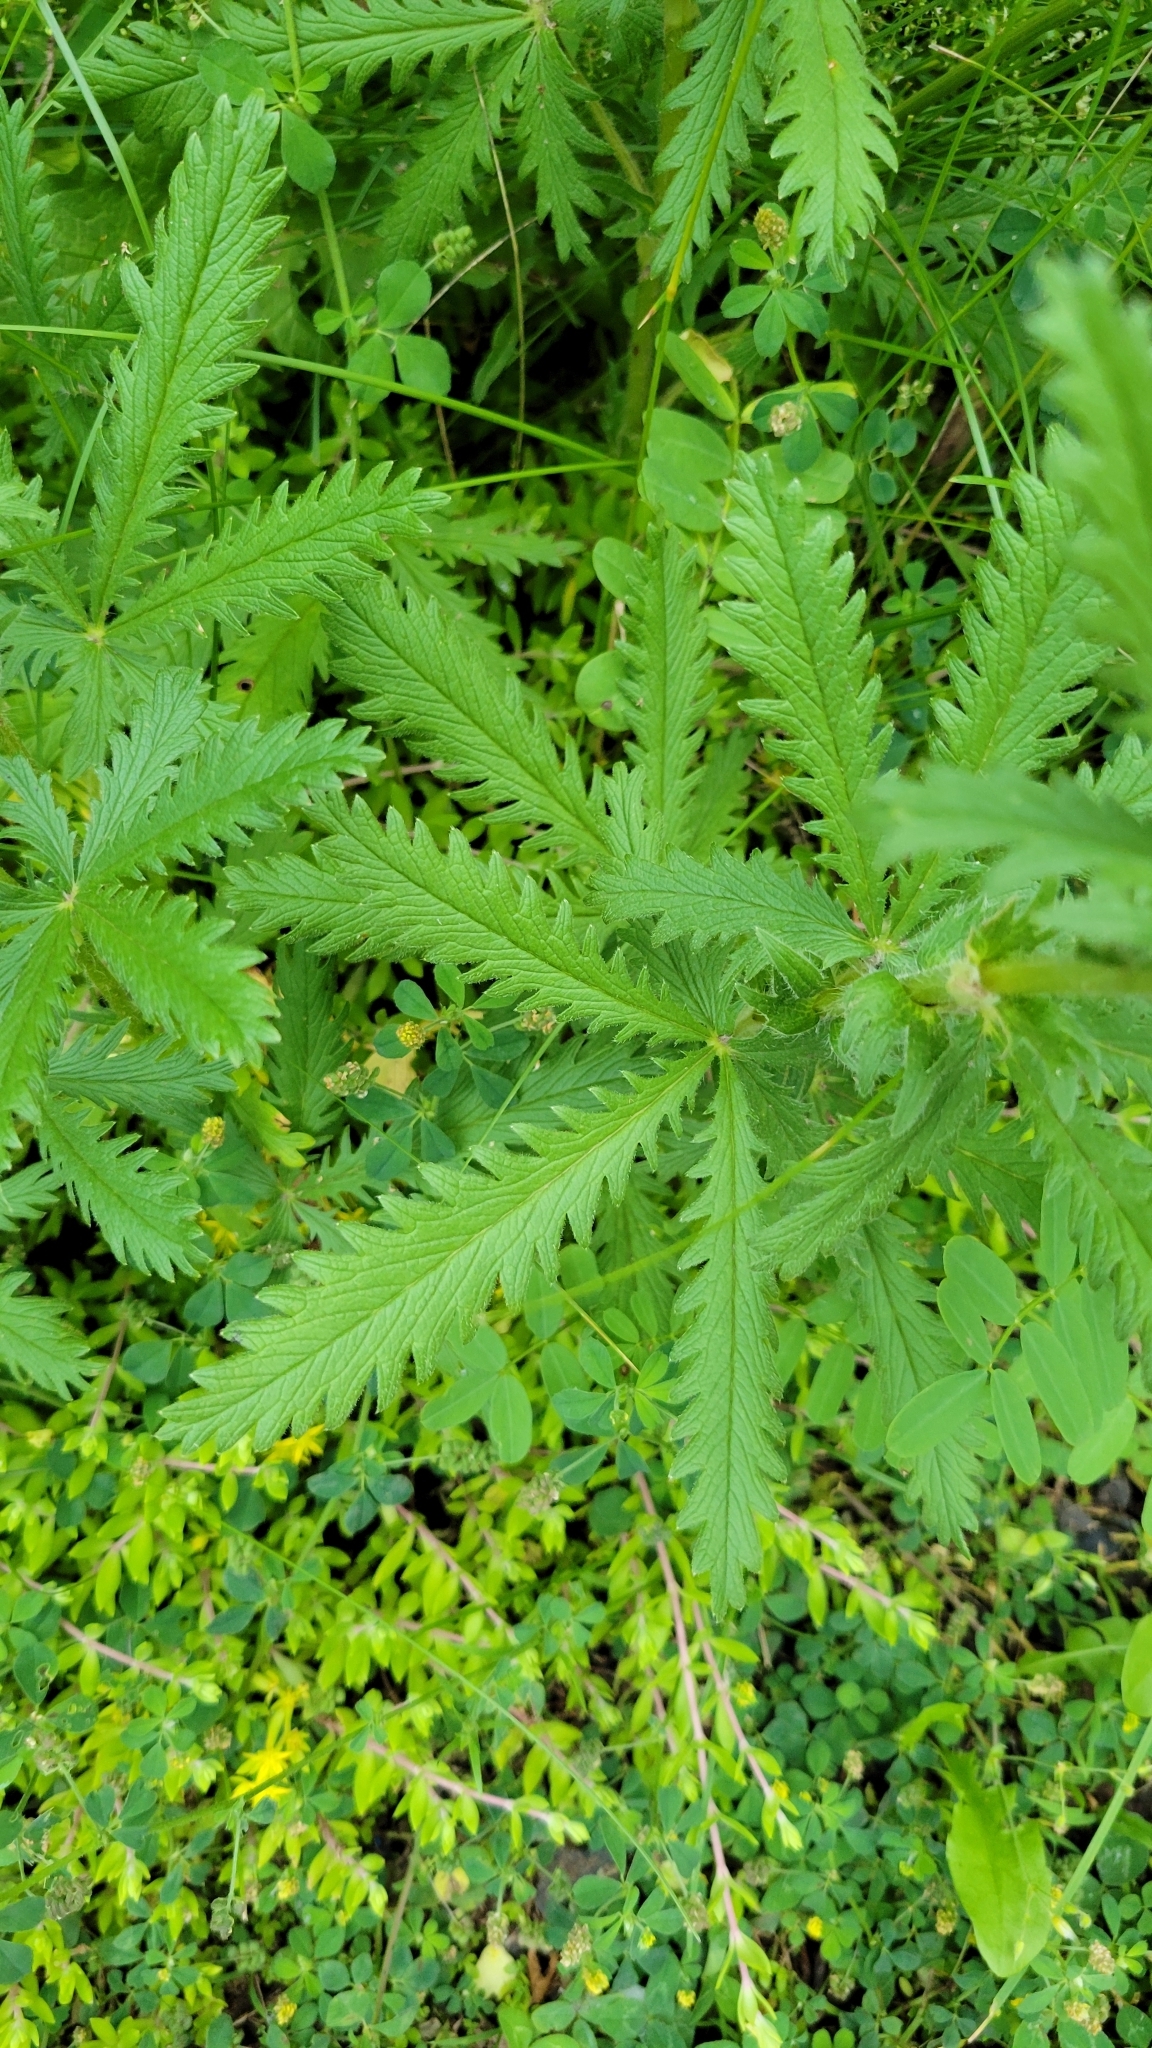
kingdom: Plantae
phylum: Tracheophyta
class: Magnoliopsida
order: Rosales
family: Rosaceae
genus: Potentilla
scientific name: Potentilla recta
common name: Sulphur cinquefoil
